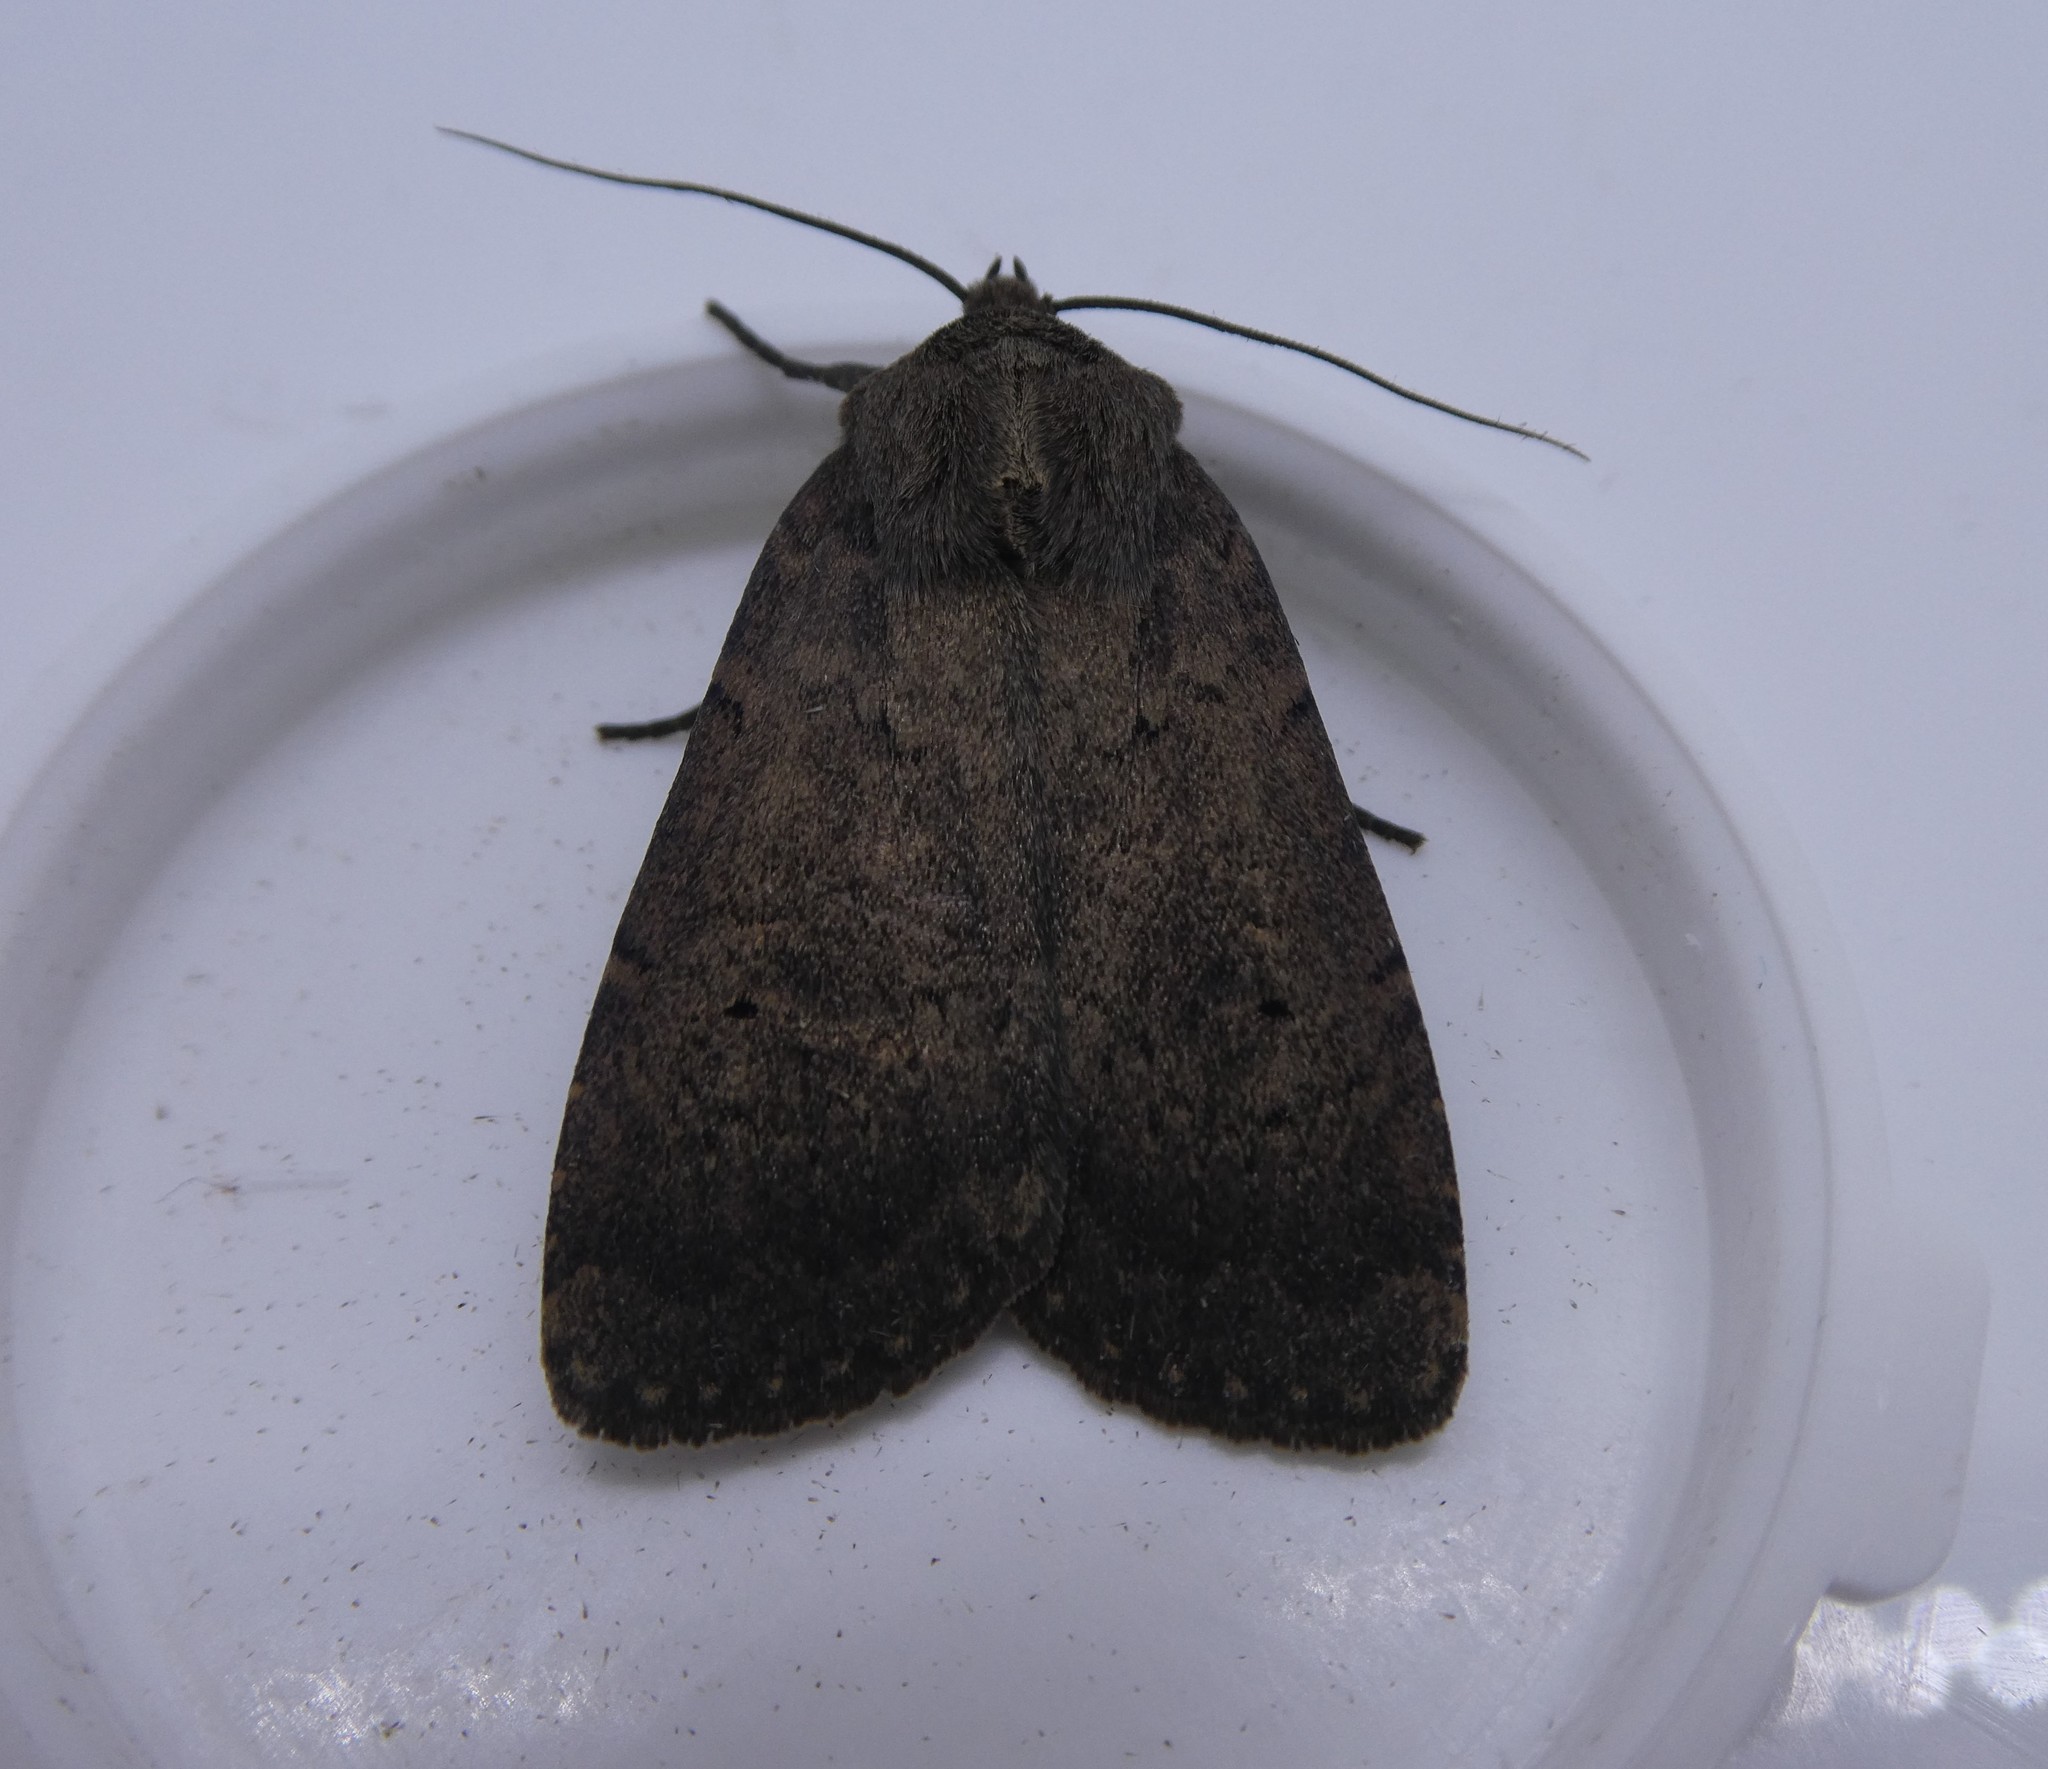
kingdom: Animalia
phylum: Arthropoda
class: Insecta
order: Lepidoptera
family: Noctuidae
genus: Graphiphora
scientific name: Graphiphora augur
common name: Double dart
